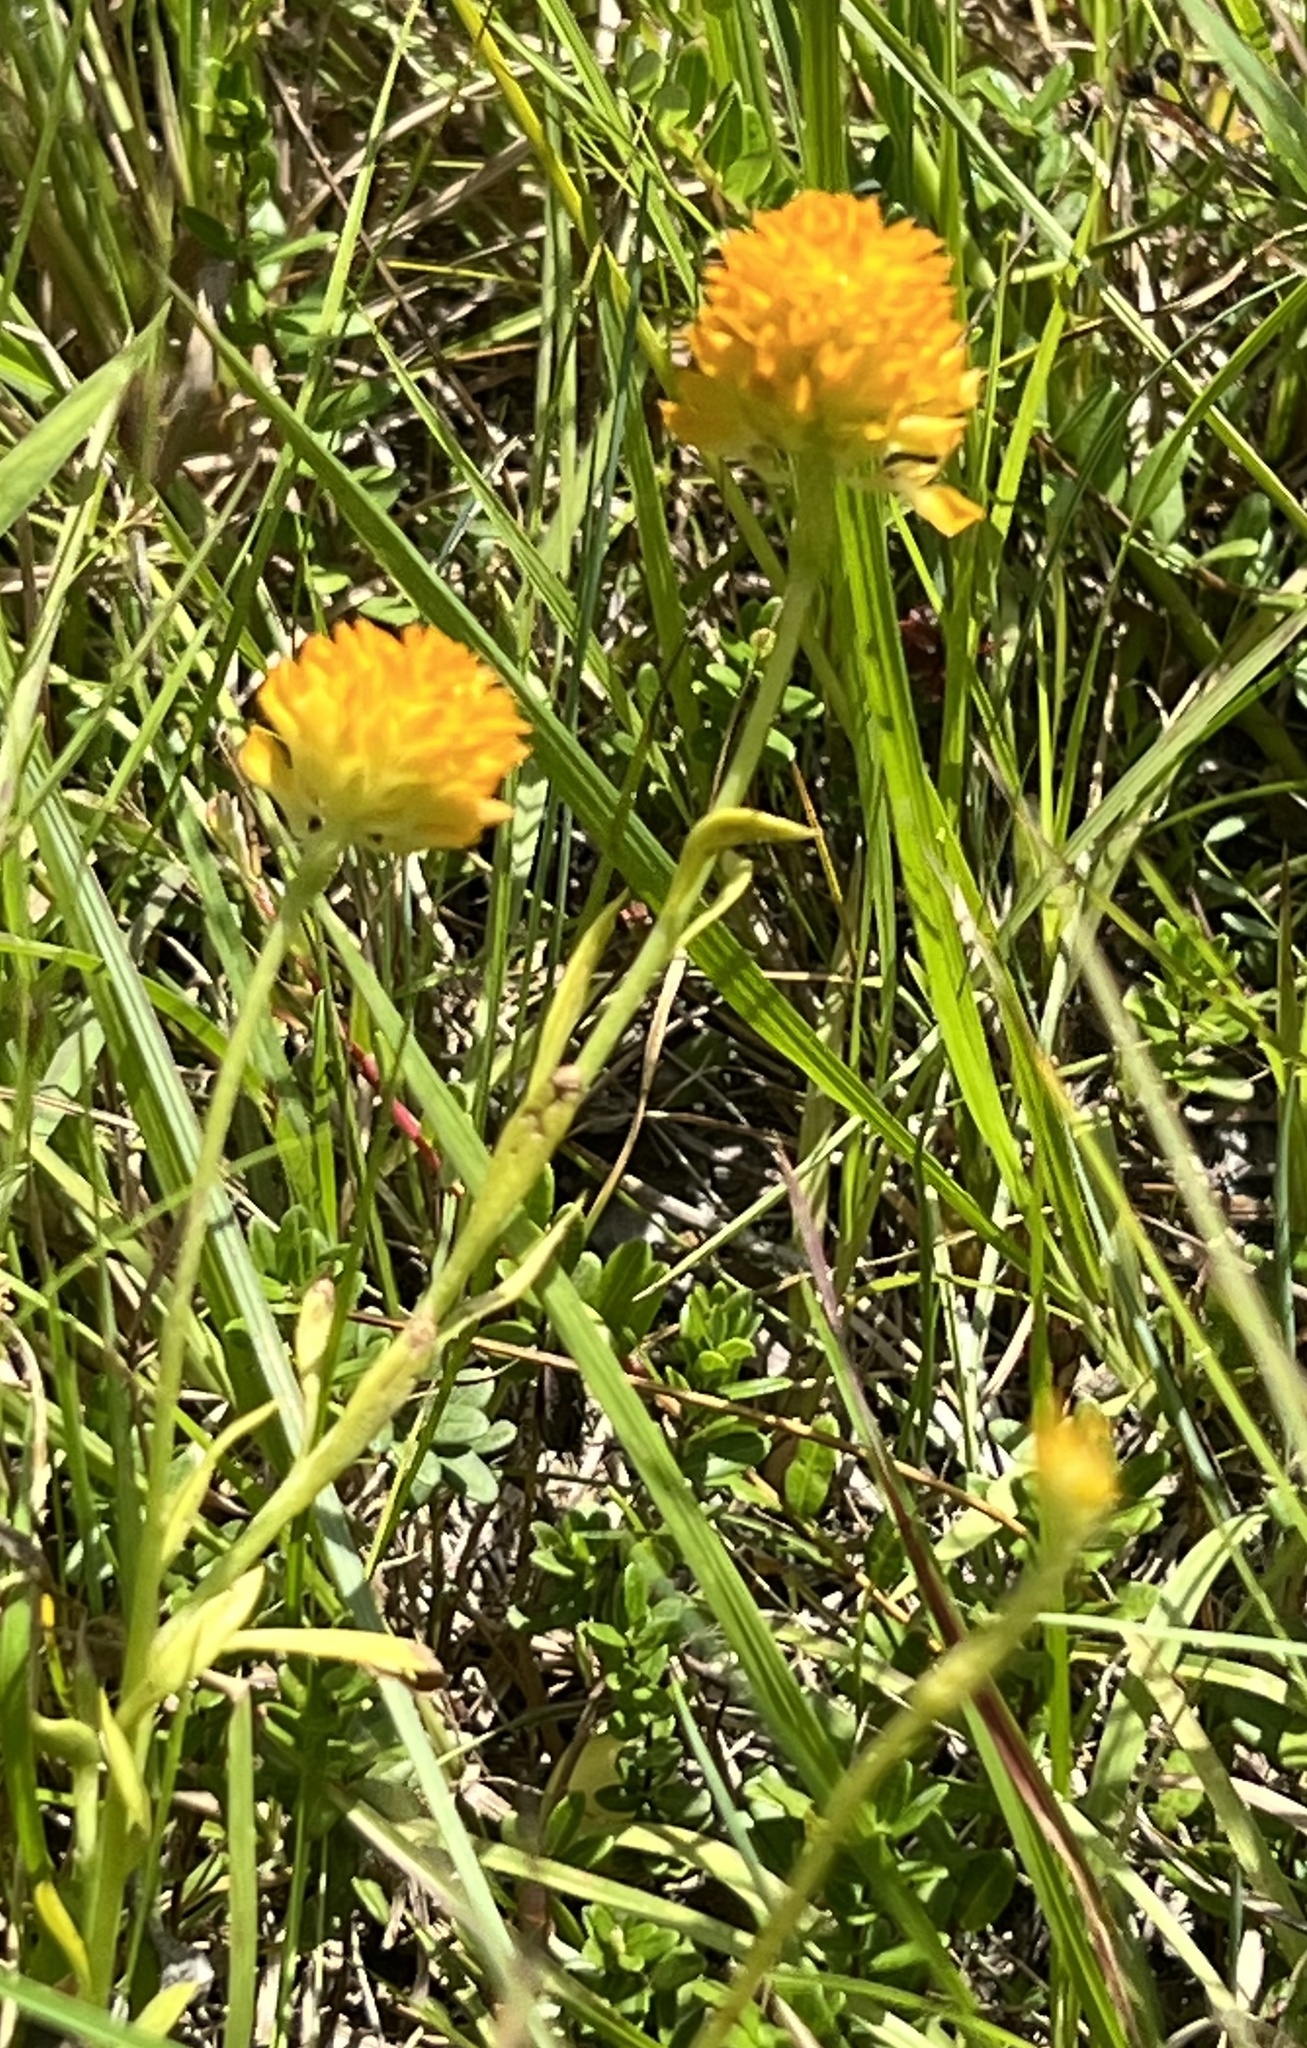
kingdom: Plantae
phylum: Tracheophyta
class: Magnoliopsida
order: Fabales
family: Polygalaceae
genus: Polygala
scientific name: Polygala lutea
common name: Orange milkwort
